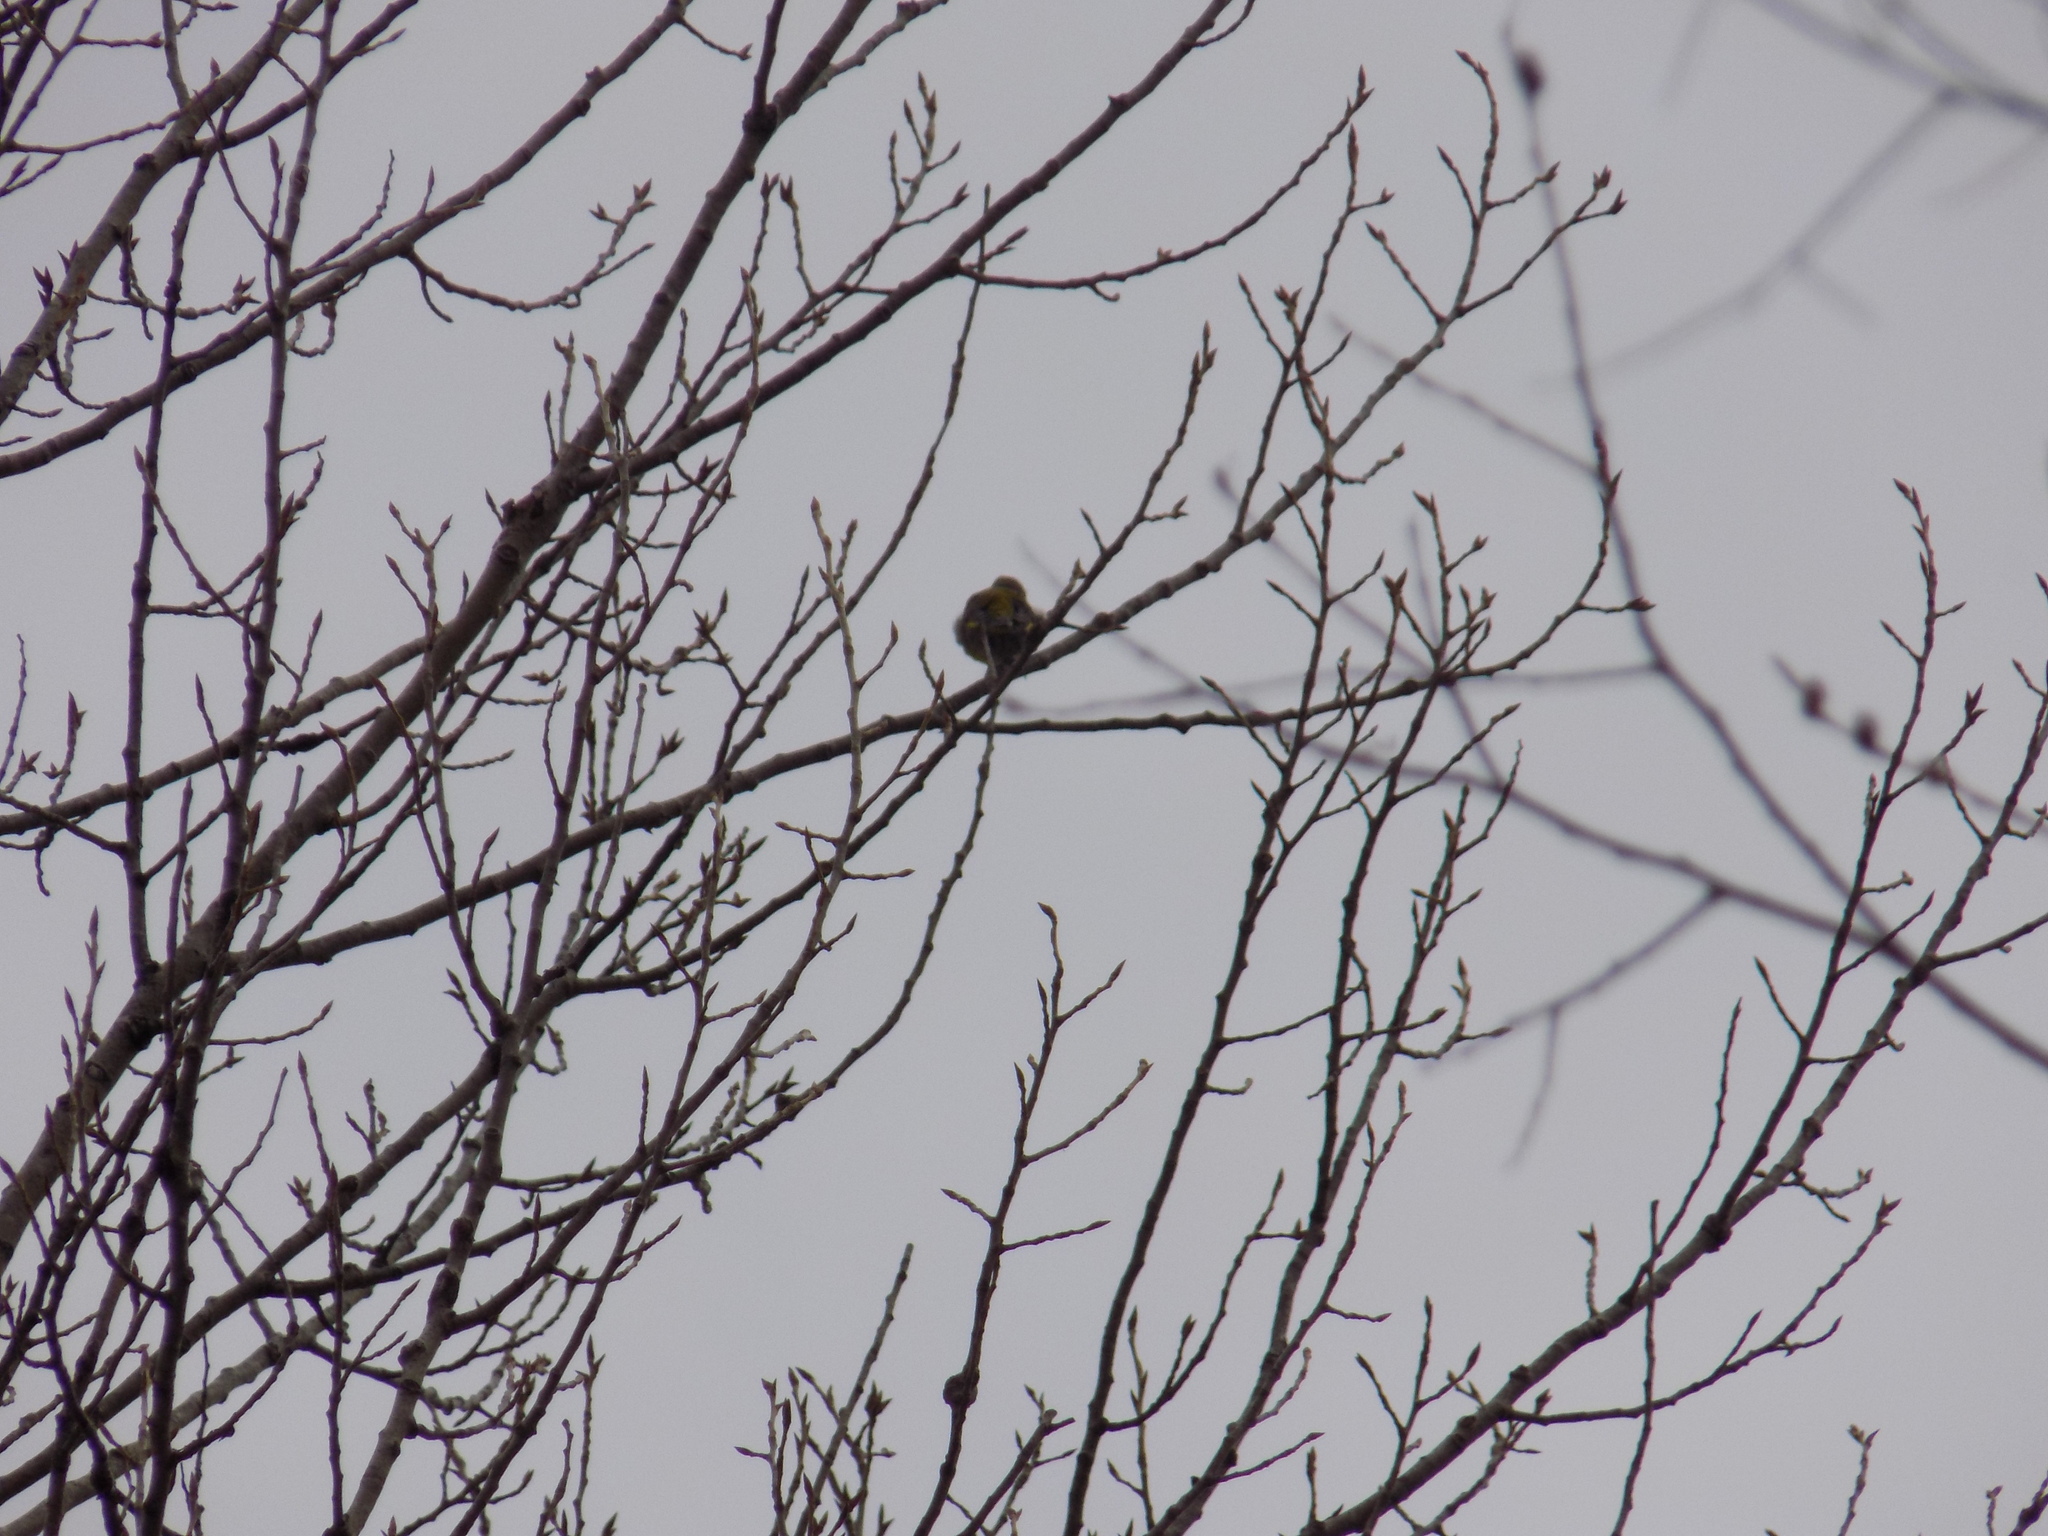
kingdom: Plantae
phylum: Tracheophyta
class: Liliopsida
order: Poales
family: Poaceae
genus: Chloris
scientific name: Chloris chloris
